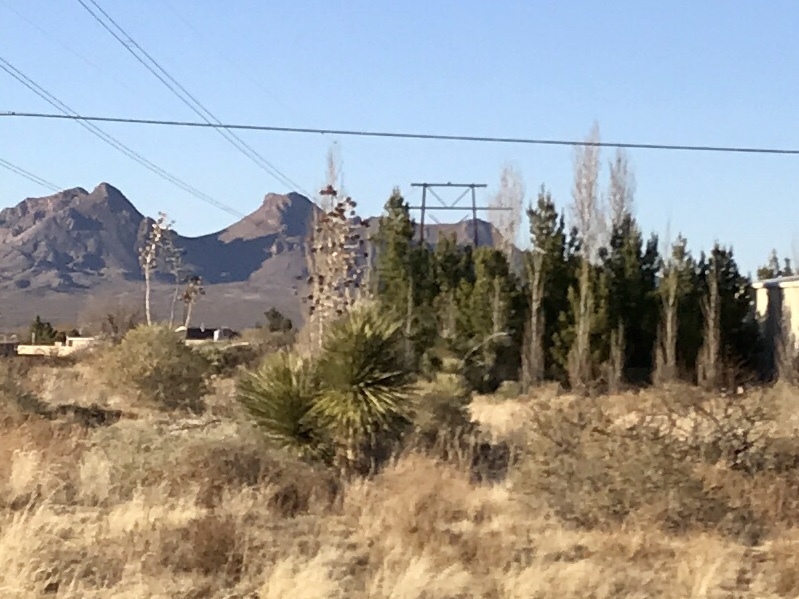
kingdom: Plantae
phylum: Tracheophyta
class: Liliopsida
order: Asparagales
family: Asparagaceae
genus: Yucca
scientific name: Yucca elata
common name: Palmella
